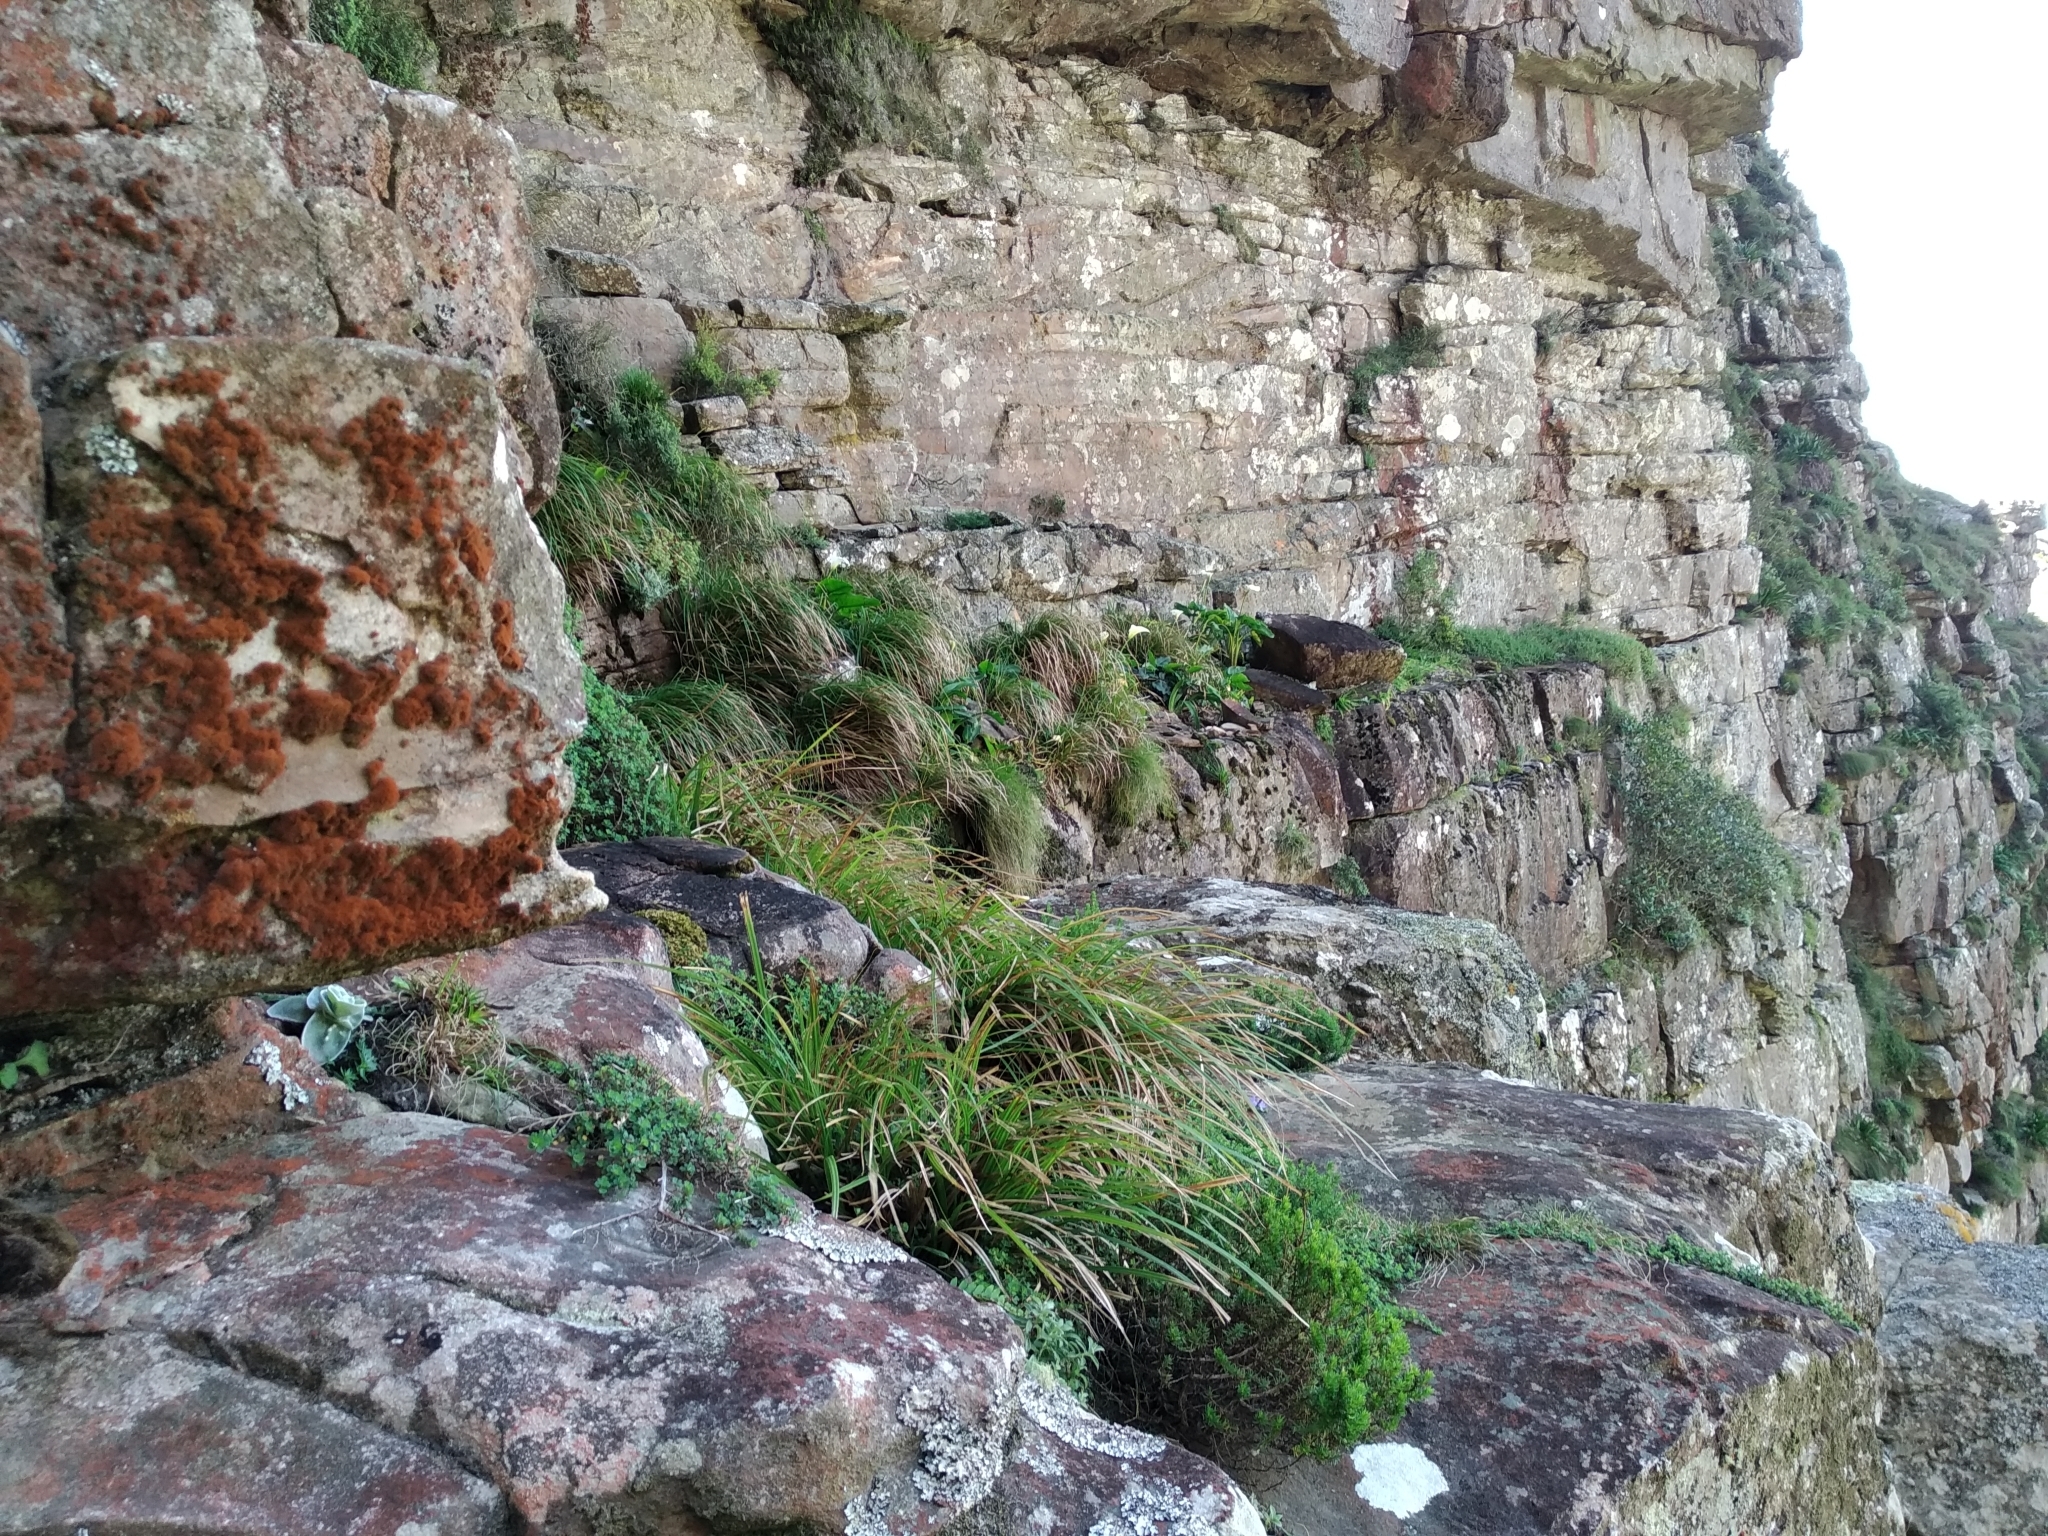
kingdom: Animalia
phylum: Chordata
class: Amphibia
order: Anura
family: Pyxicephalidae
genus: Arthroleptella
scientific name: Arthroleptella lightfooti
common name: Cape peninsula chirping frog
